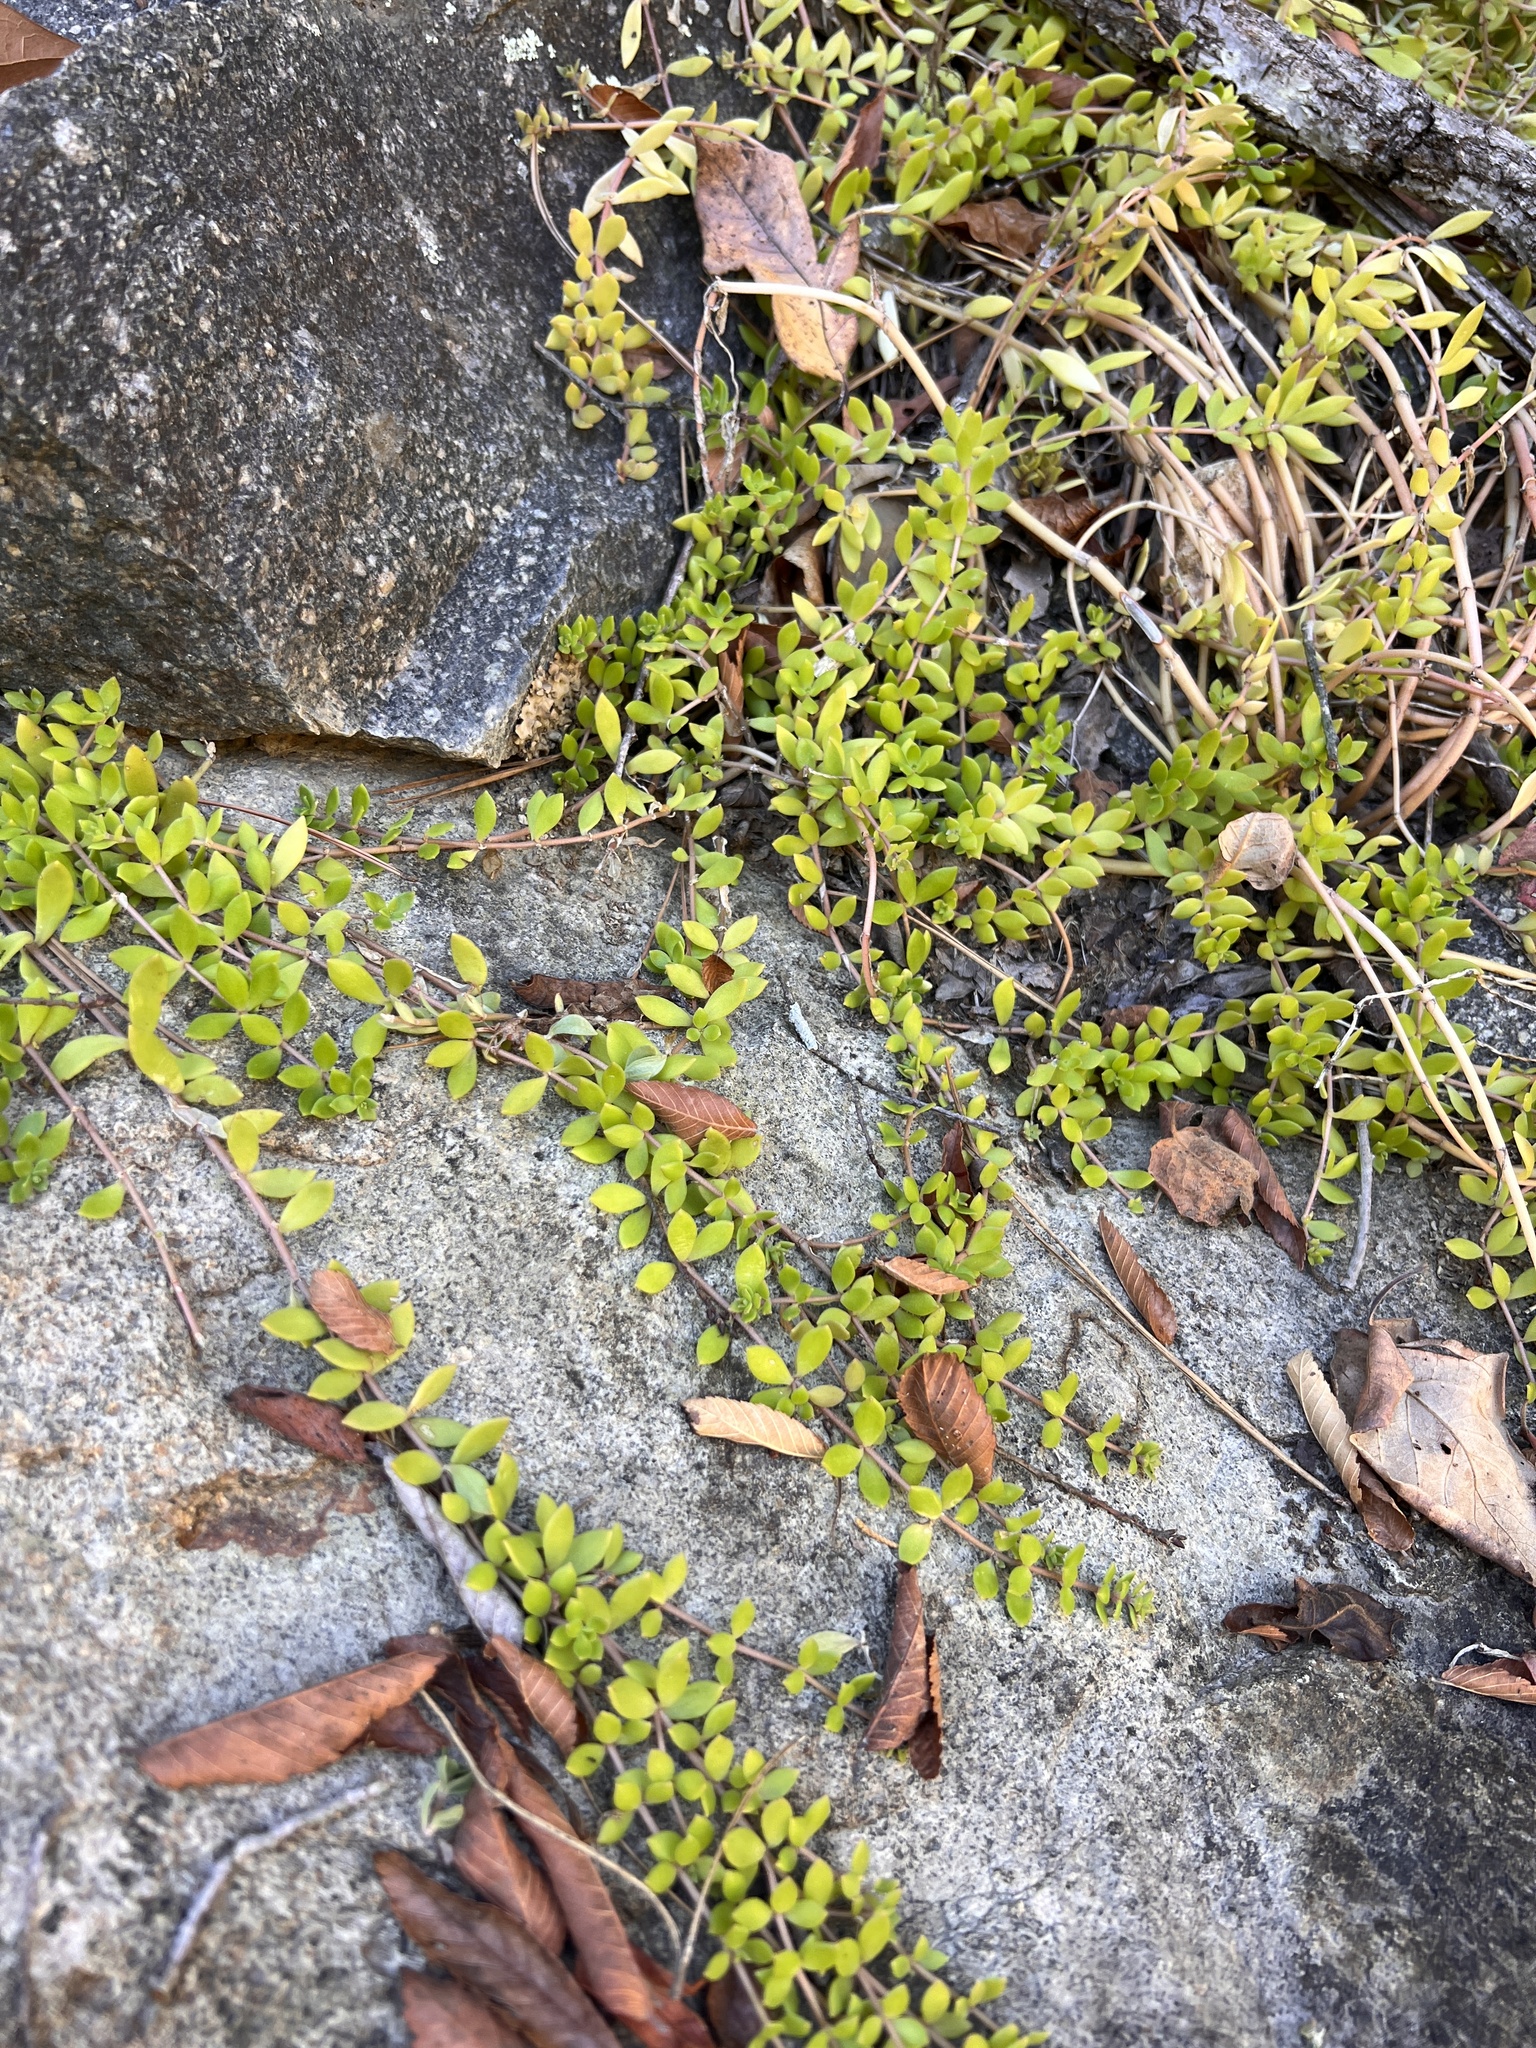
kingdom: Plantae
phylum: Tracheophyta
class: Magnoliopsida
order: Saxifragales
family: Crassulaceae
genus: Sedum
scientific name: Sedum sarmentosum
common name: Stringy stonecrop
